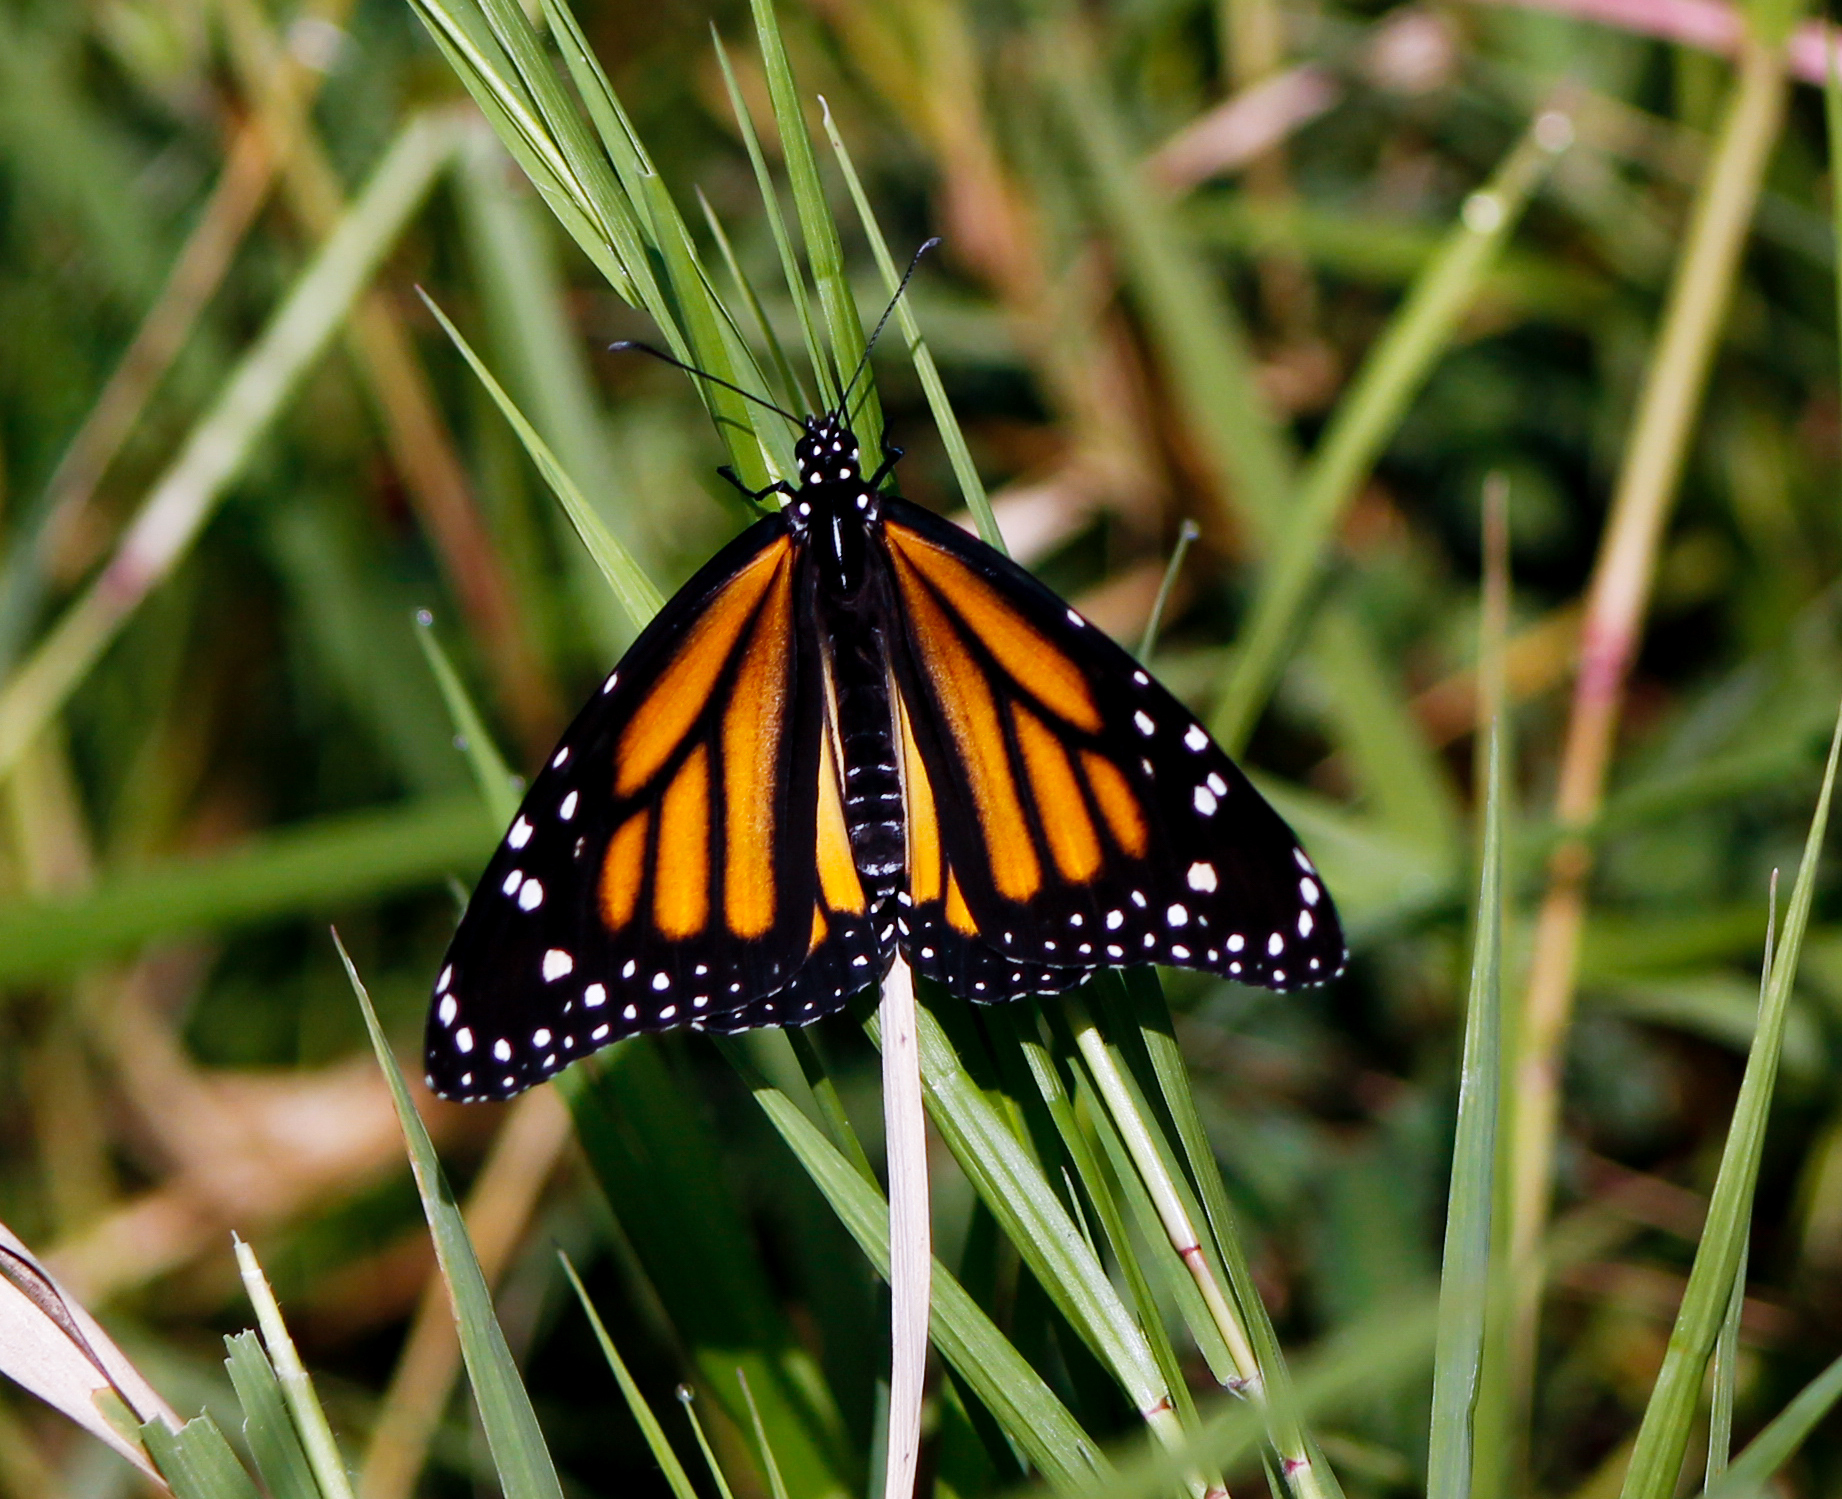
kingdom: Animalia
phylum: Arthropoda
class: Insecta
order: Lepidoptera
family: Nymphalidae
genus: Danaus
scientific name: Danaus plexippus
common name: Monarch
